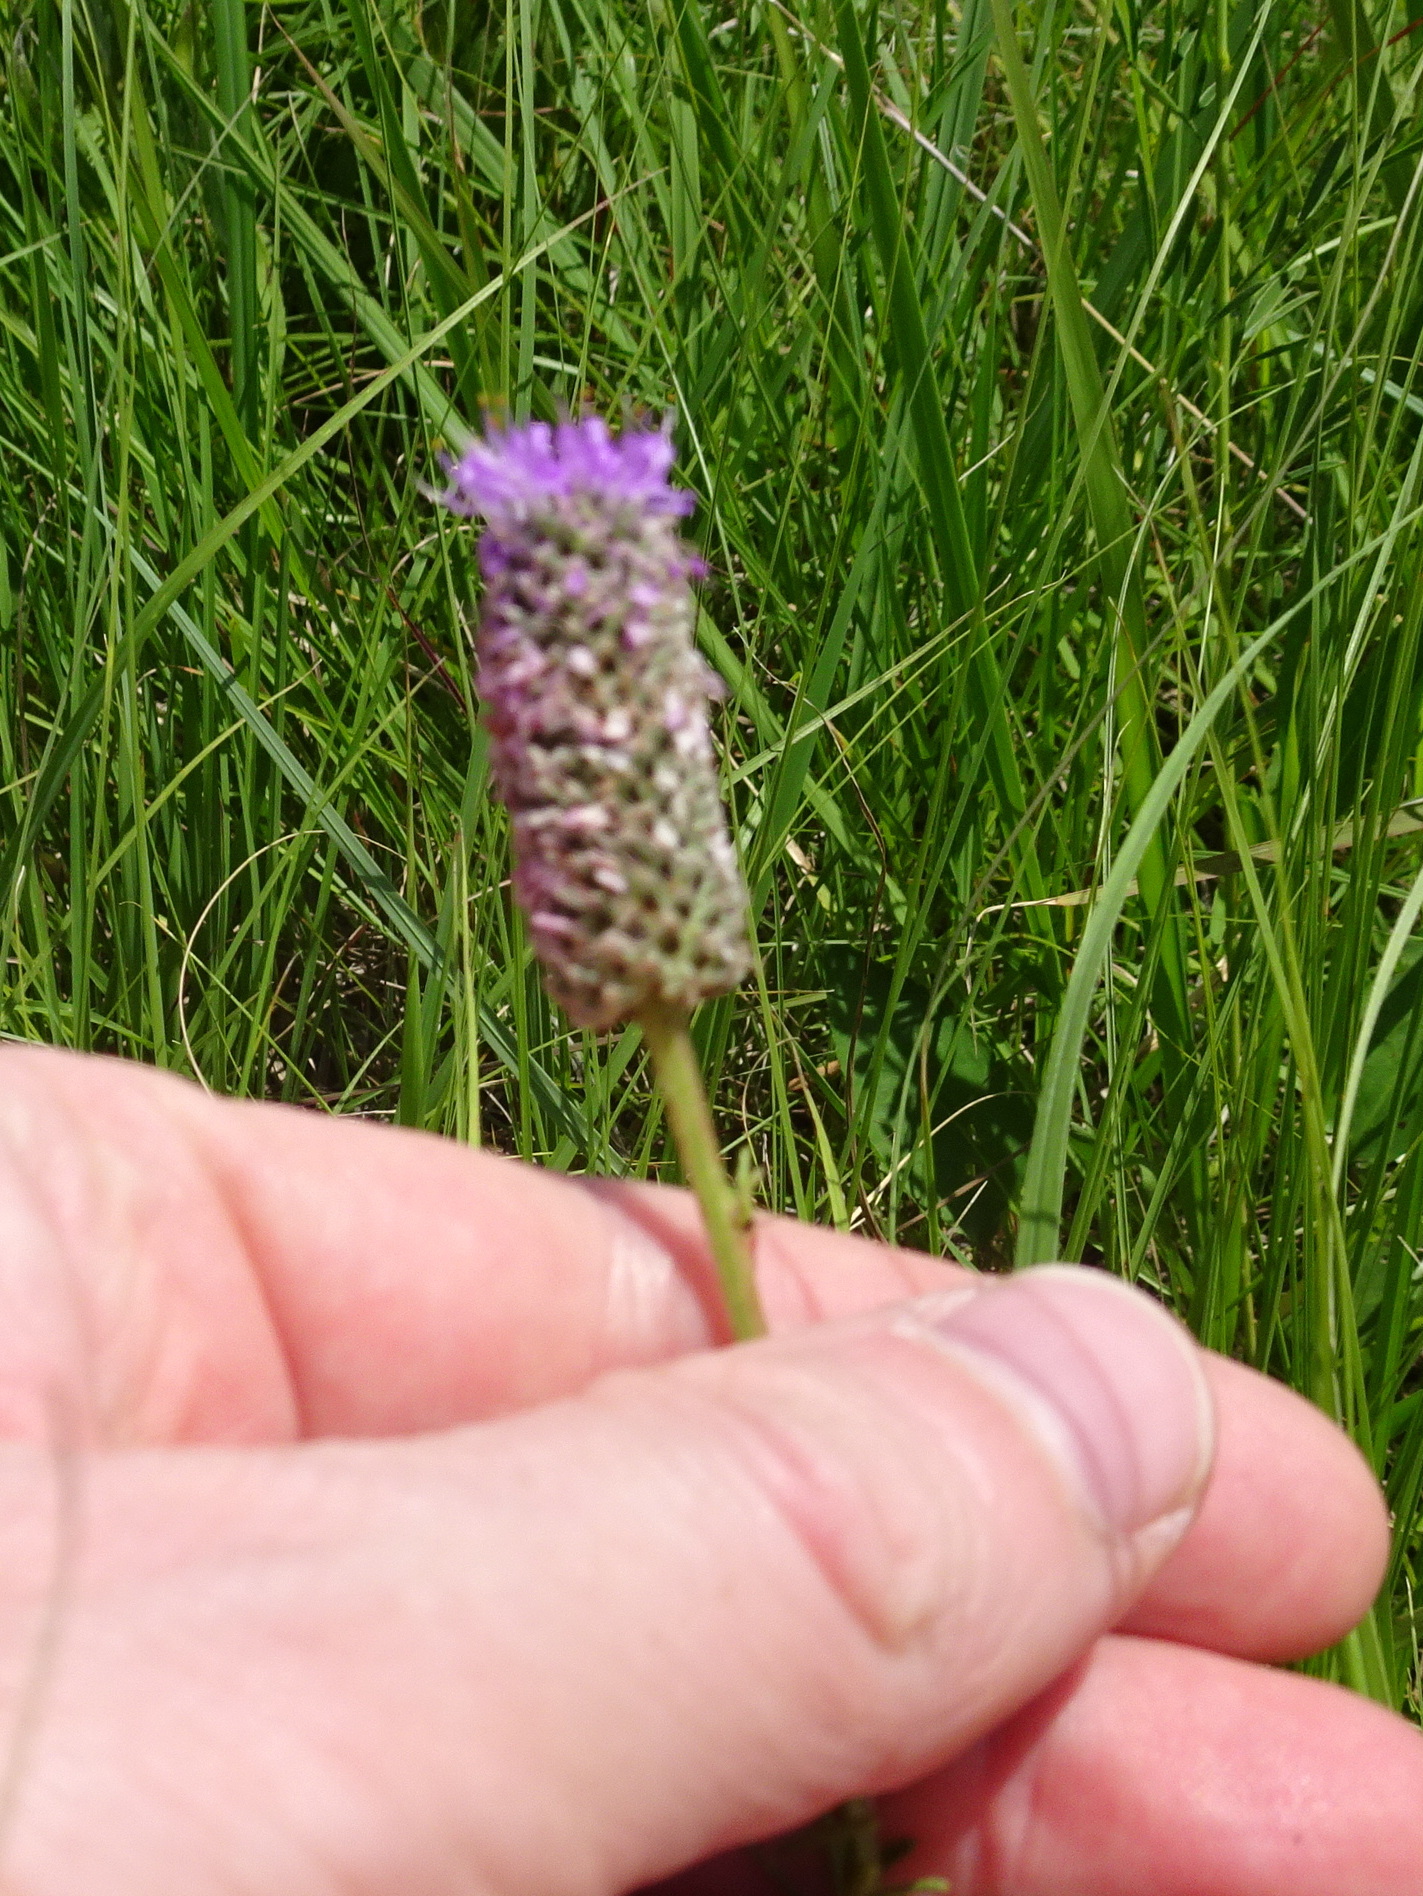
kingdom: Plantae
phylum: Tracheophyta
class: Magnoliopsida
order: Fabales
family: Fabaceae
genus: Dalea
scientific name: Dalea purpurea
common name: Purple prairie-clover
